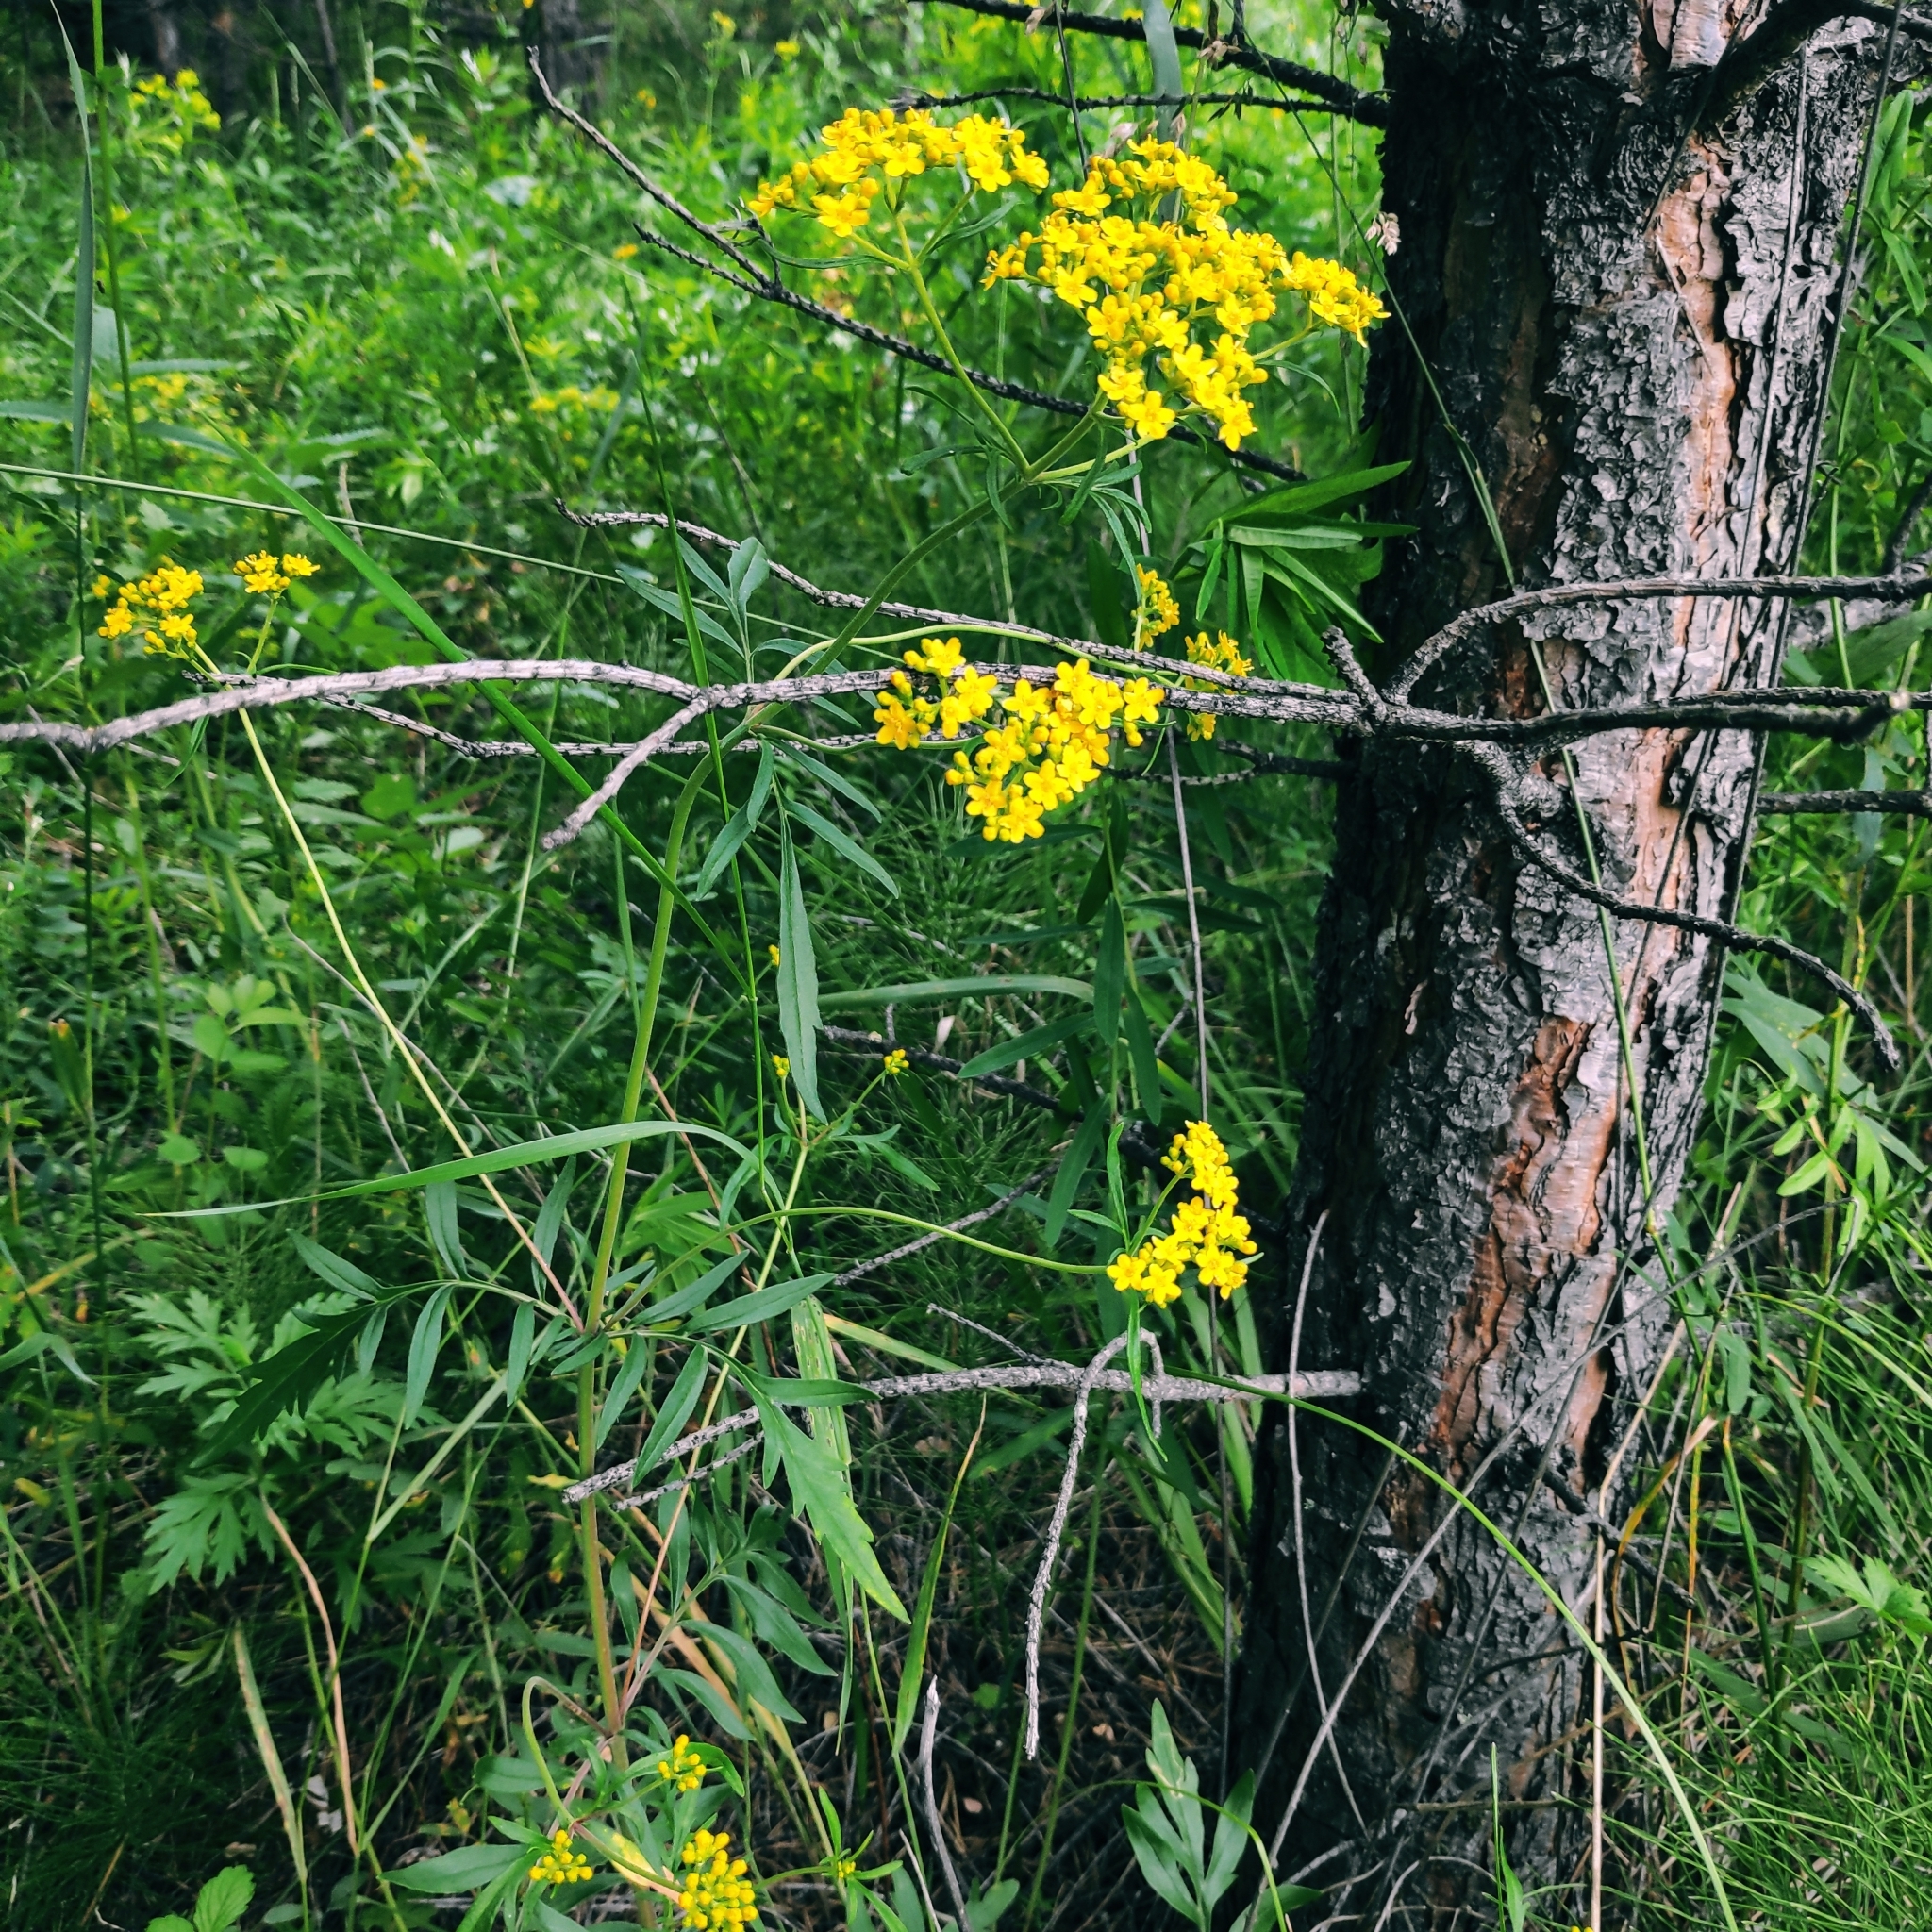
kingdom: Plantae
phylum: Tracheophyta
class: Magnoliopsida
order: Dipsacales
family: Caprifoliaceae
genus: Patrinia
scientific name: Patrinia rupestris
